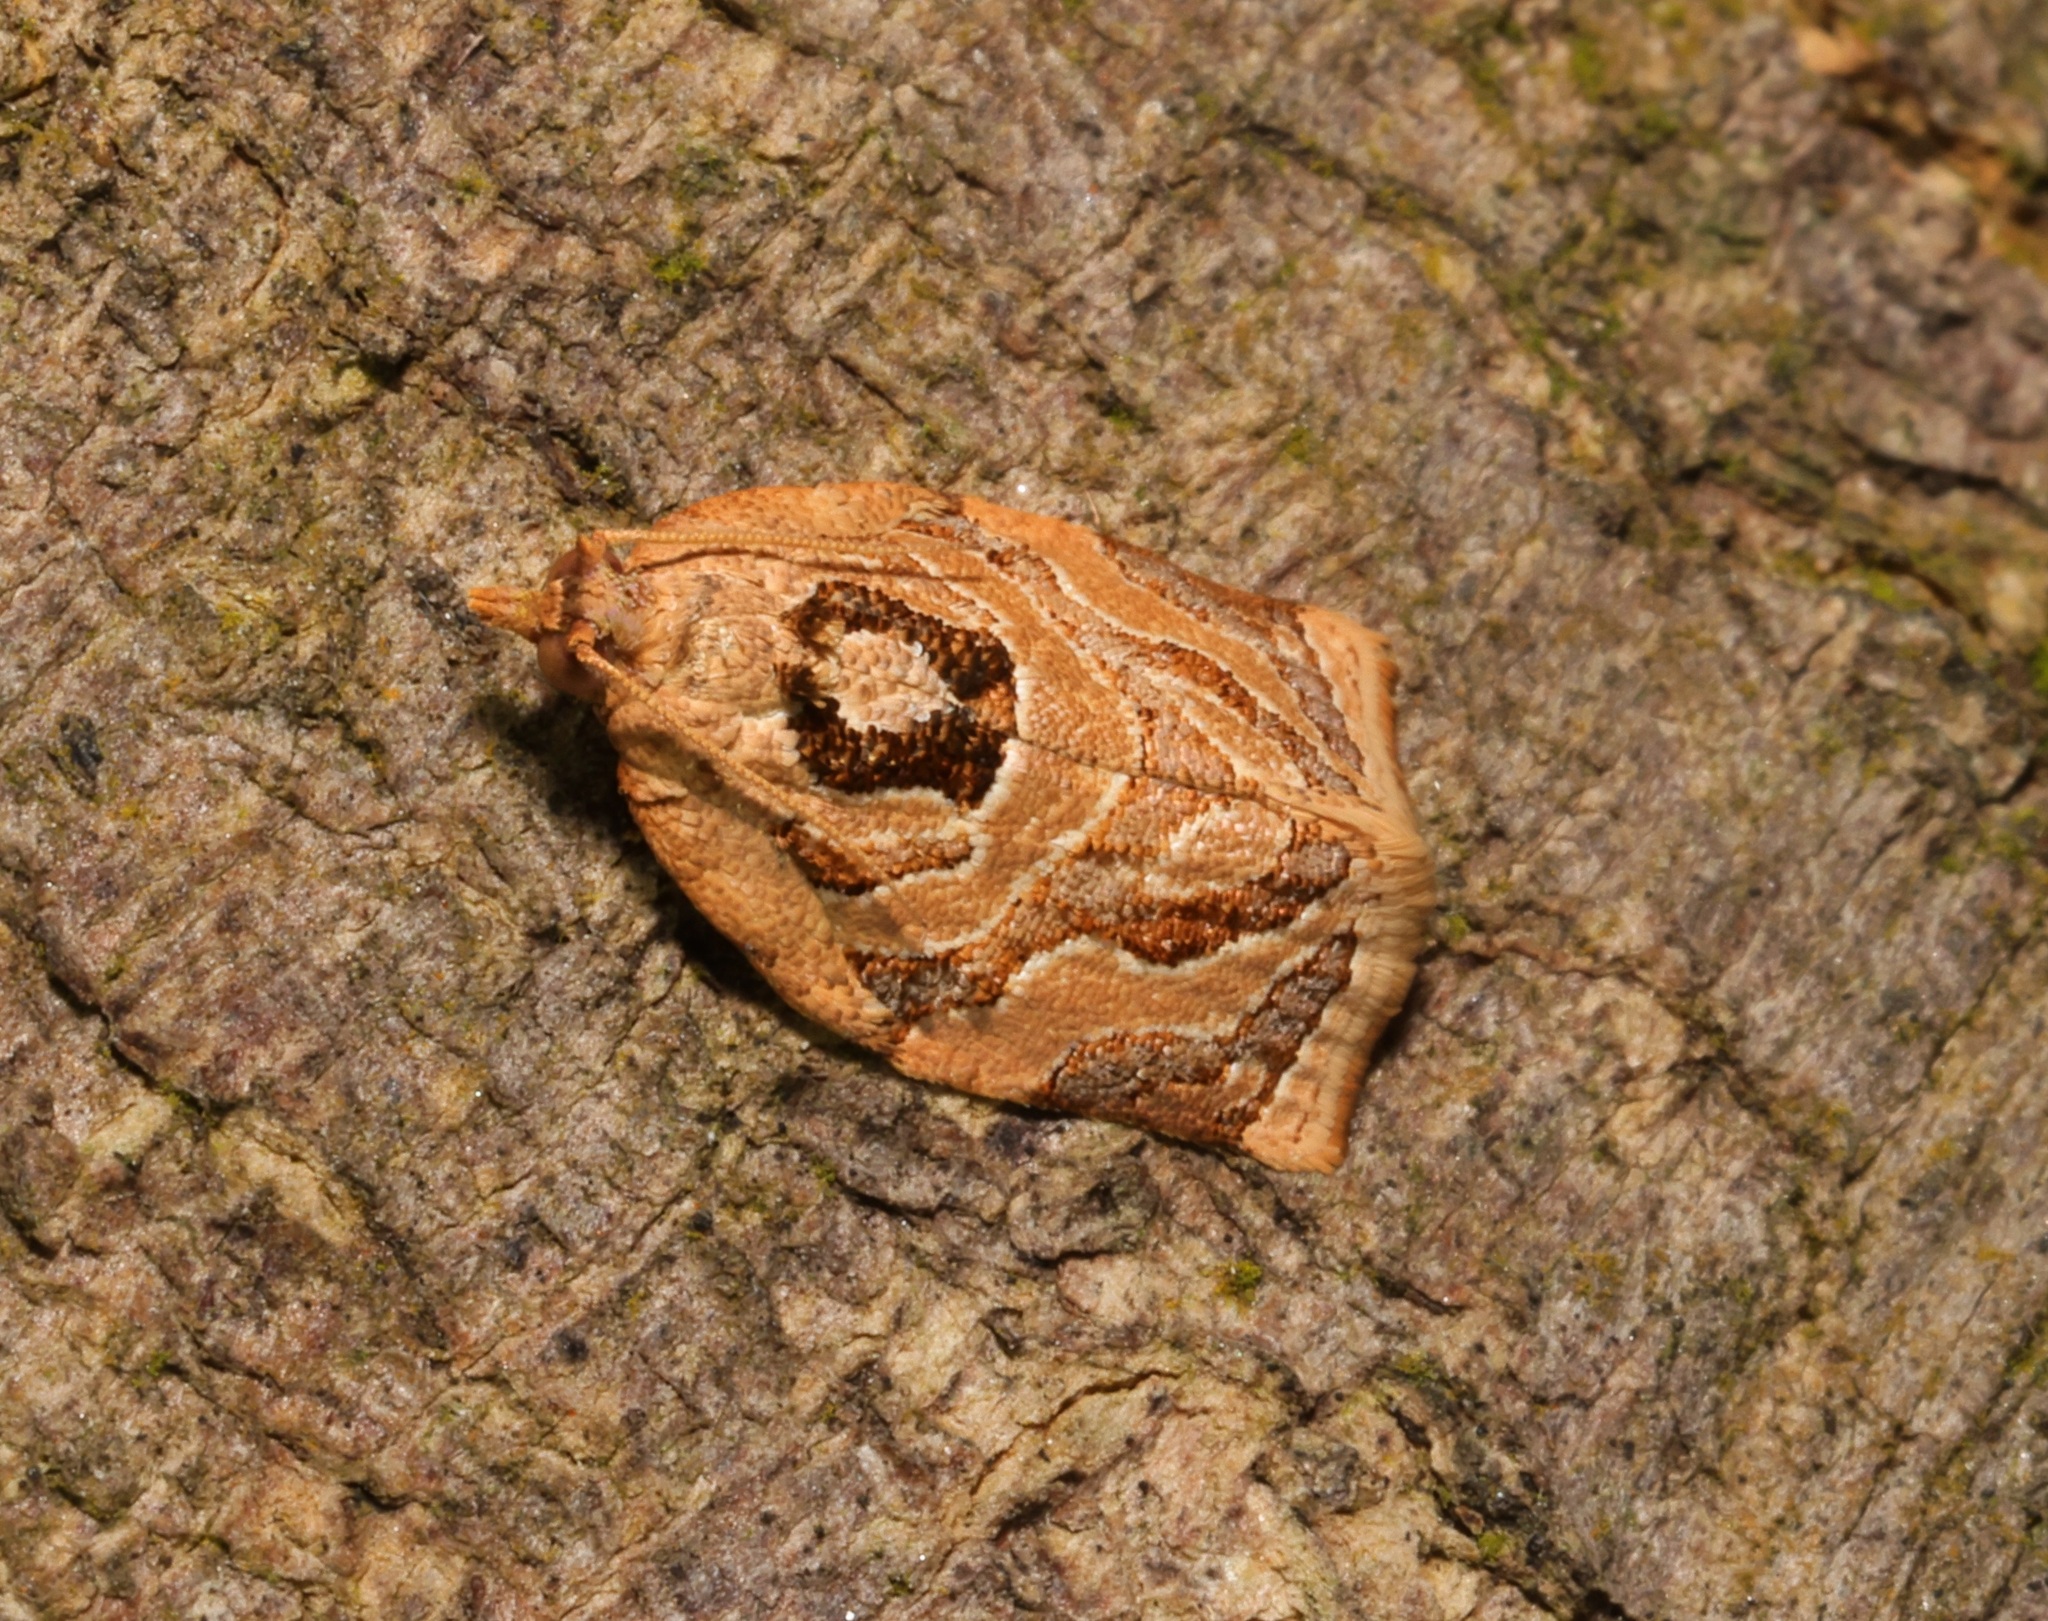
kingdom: Animalia
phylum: Arthropoda
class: Insecta
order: Lepidoptera
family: Tortricidae
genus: Adoxophyes
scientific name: Adoxophyes privatana
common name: Asian orchid tortrix
